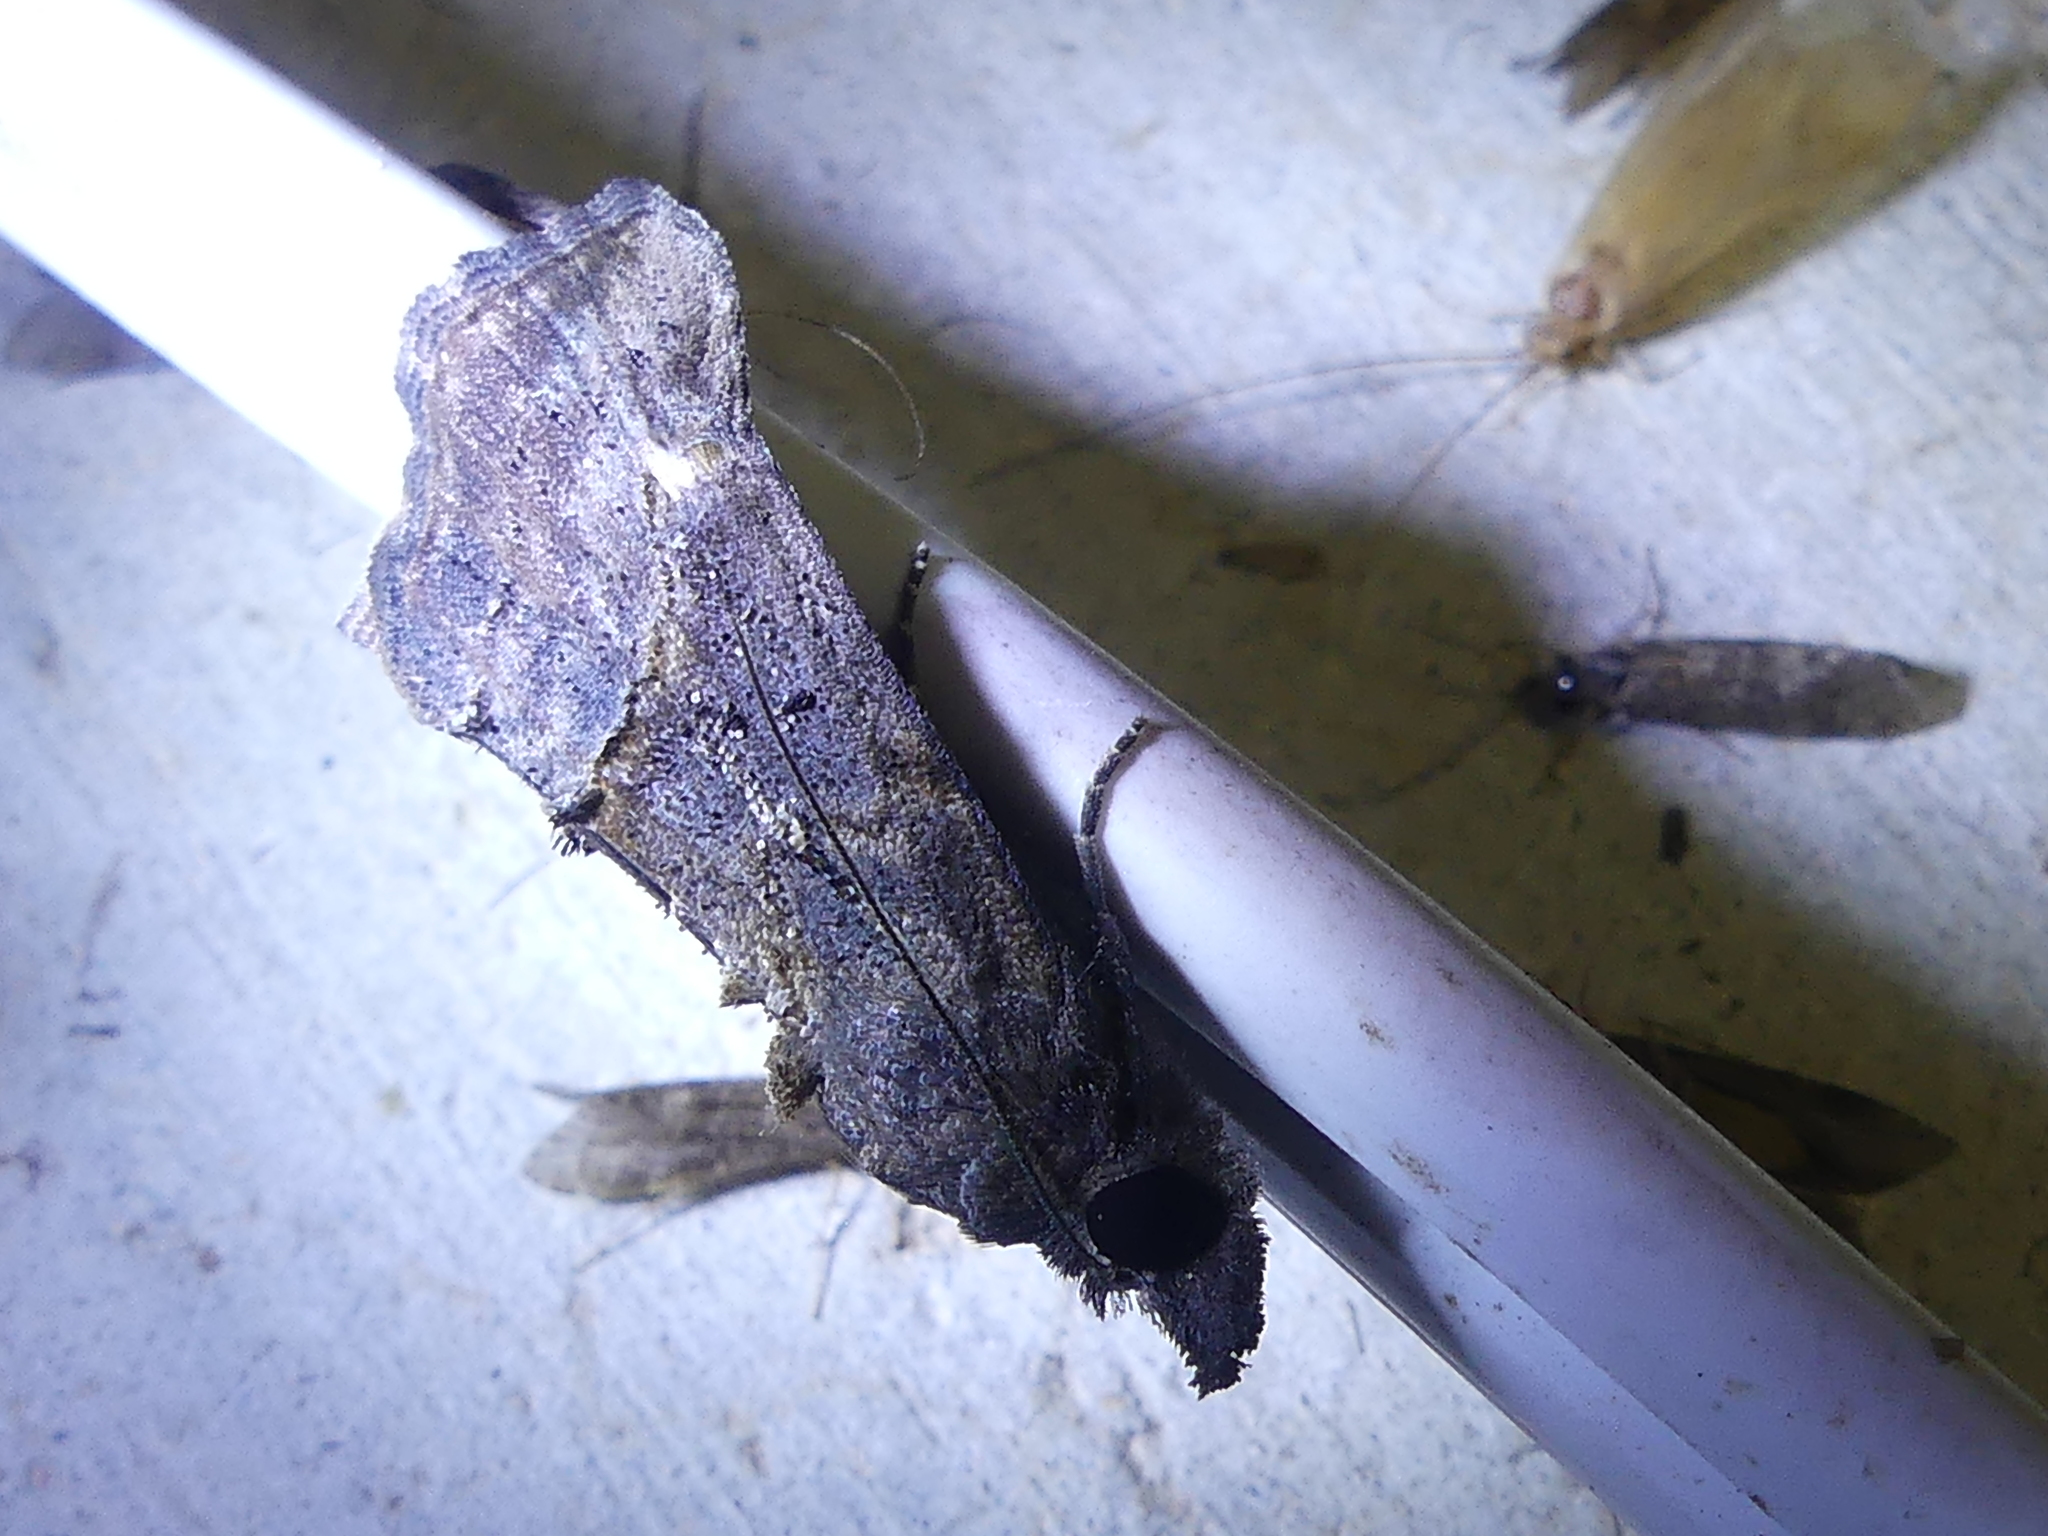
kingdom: Animalia
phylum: Arthropoda
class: Insecta
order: Lepidoptera
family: Erebidae
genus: Hypena
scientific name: Hypena scabra
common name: Green cloverworm
